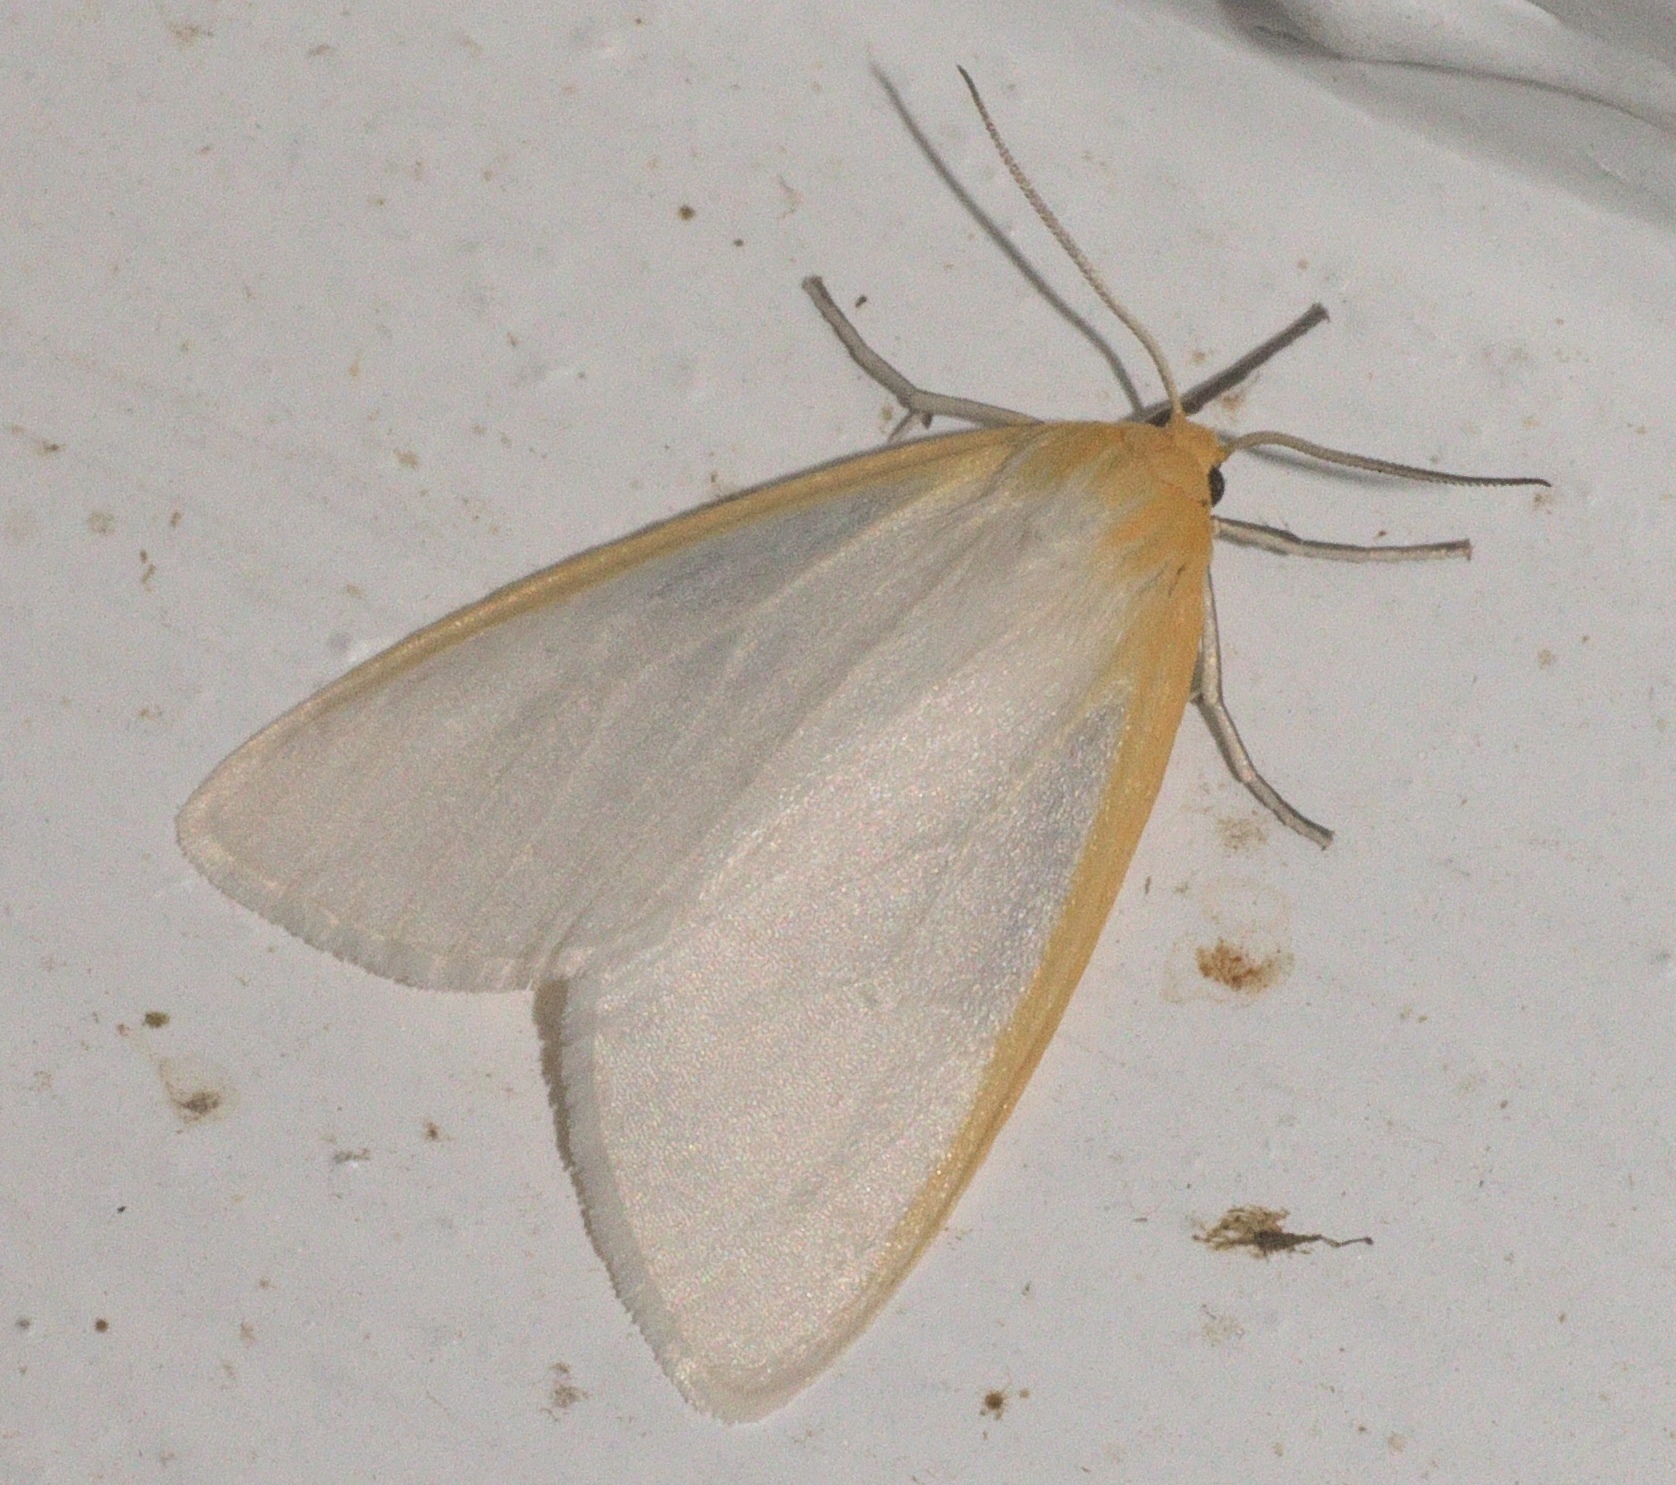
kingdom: Animalia
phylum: Arthropoda
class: Insecta
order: Lepidoptera
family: Erebidae
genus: Cycnia
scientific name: Cycnia tenera
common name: Delicate cycnia moth
